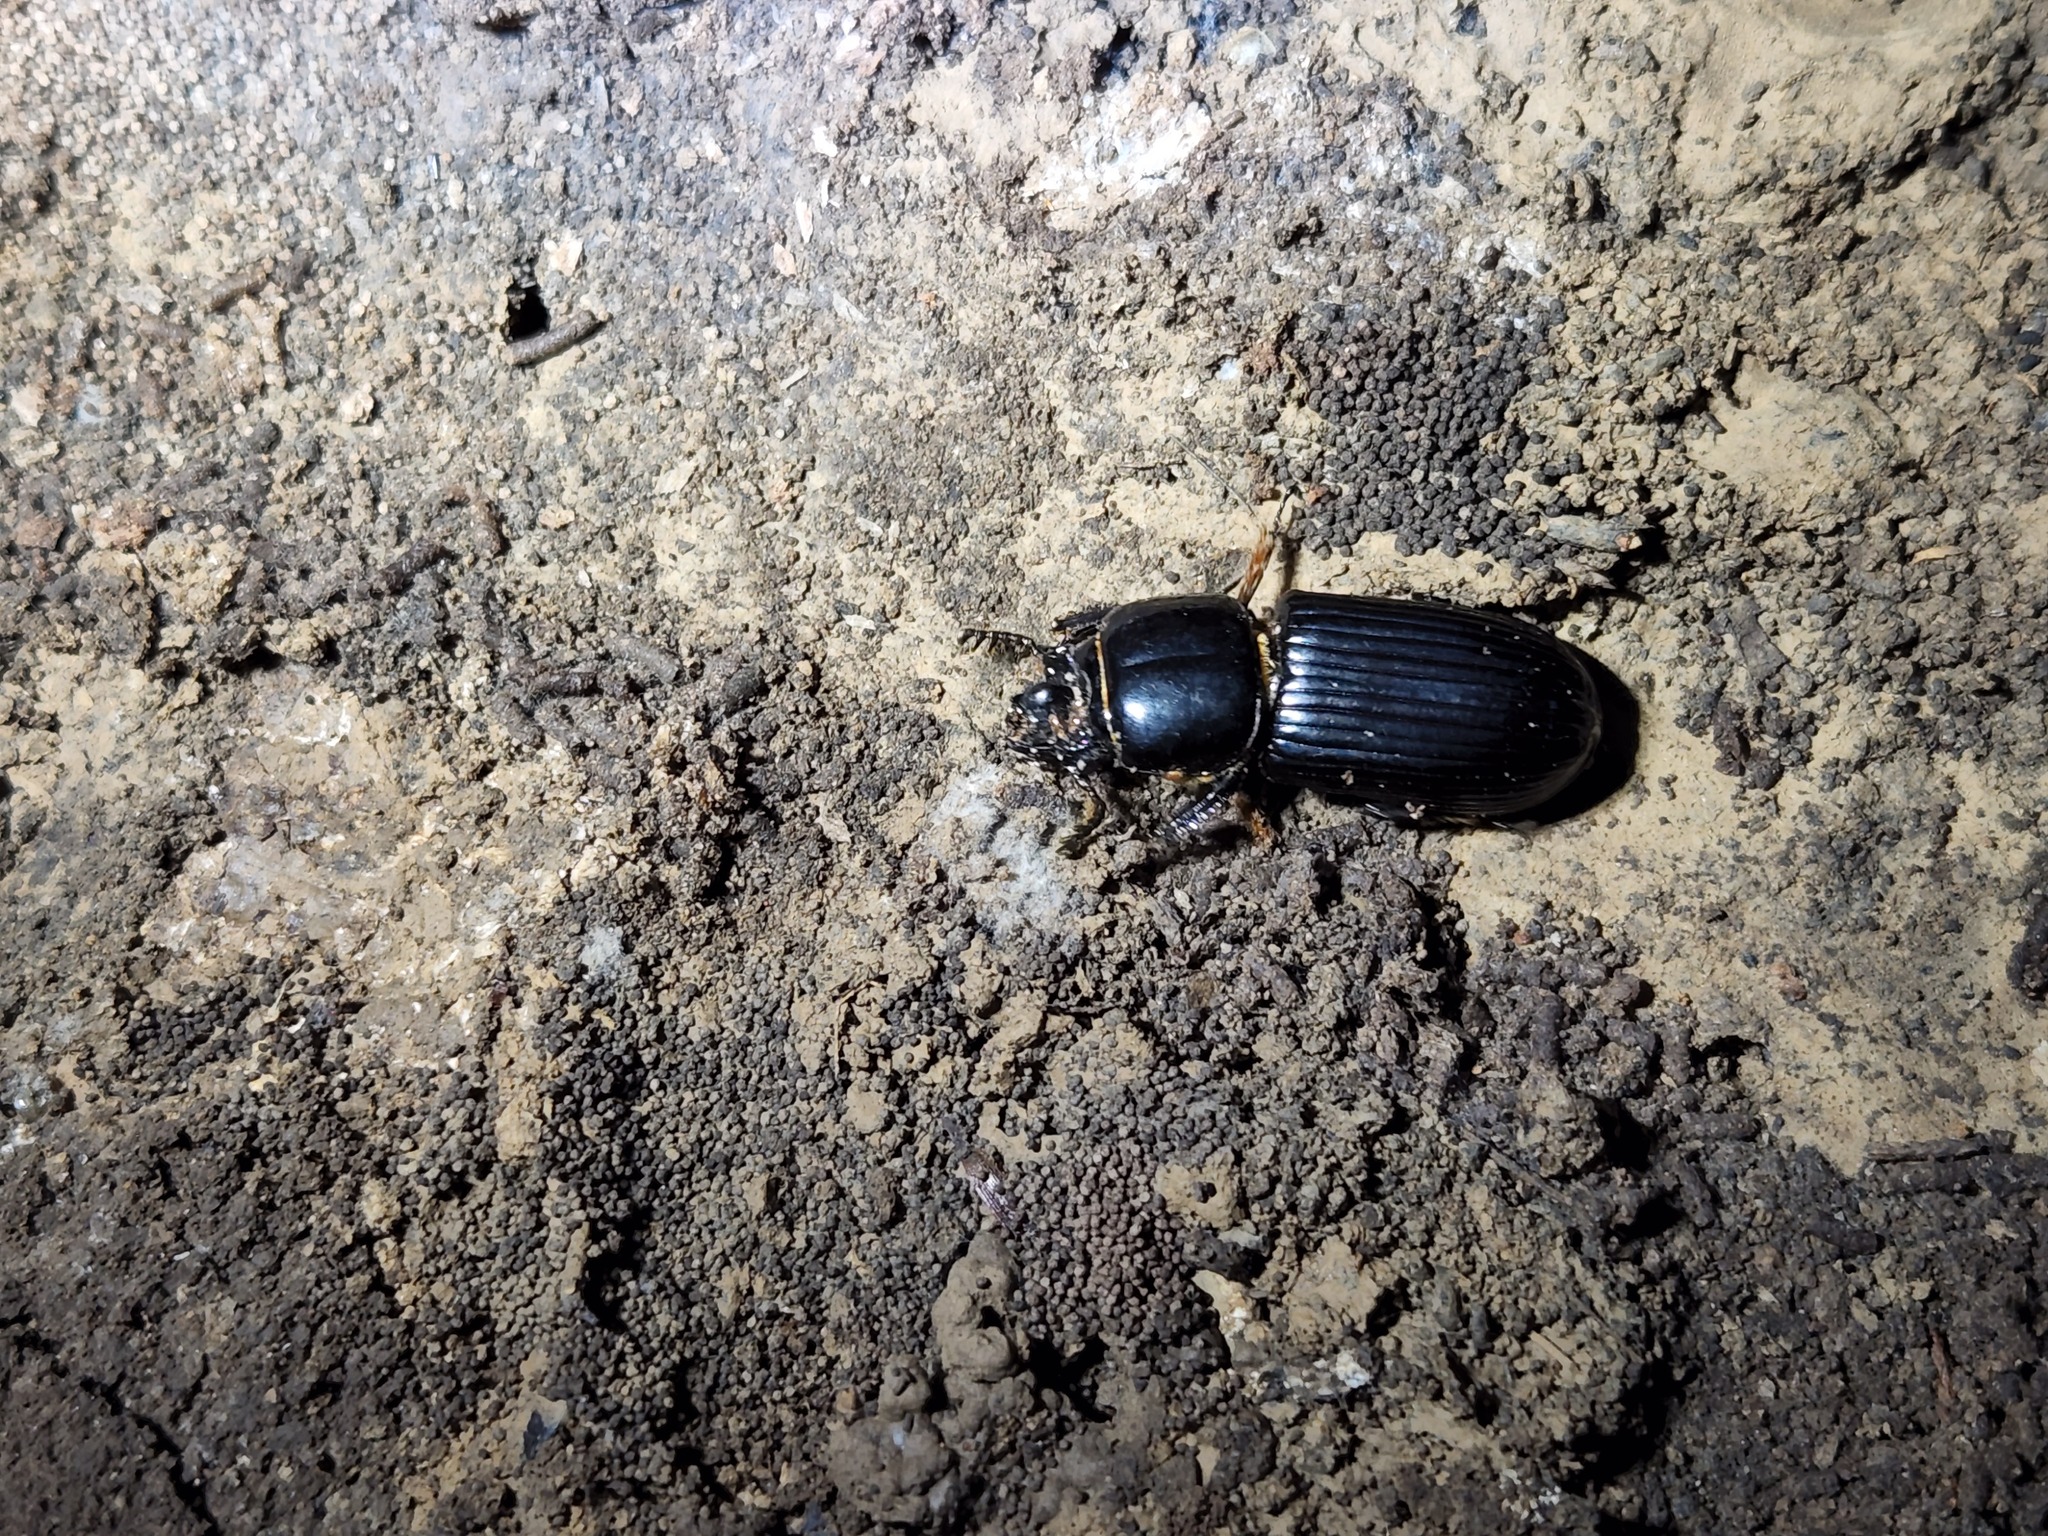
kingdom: Animalia
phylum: Arthropoda
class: Insecta
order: Coleoptera
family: Passalidae
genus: Odontotaenius
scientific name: Odontotaenius disjunctus
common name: Patent leather beetle
